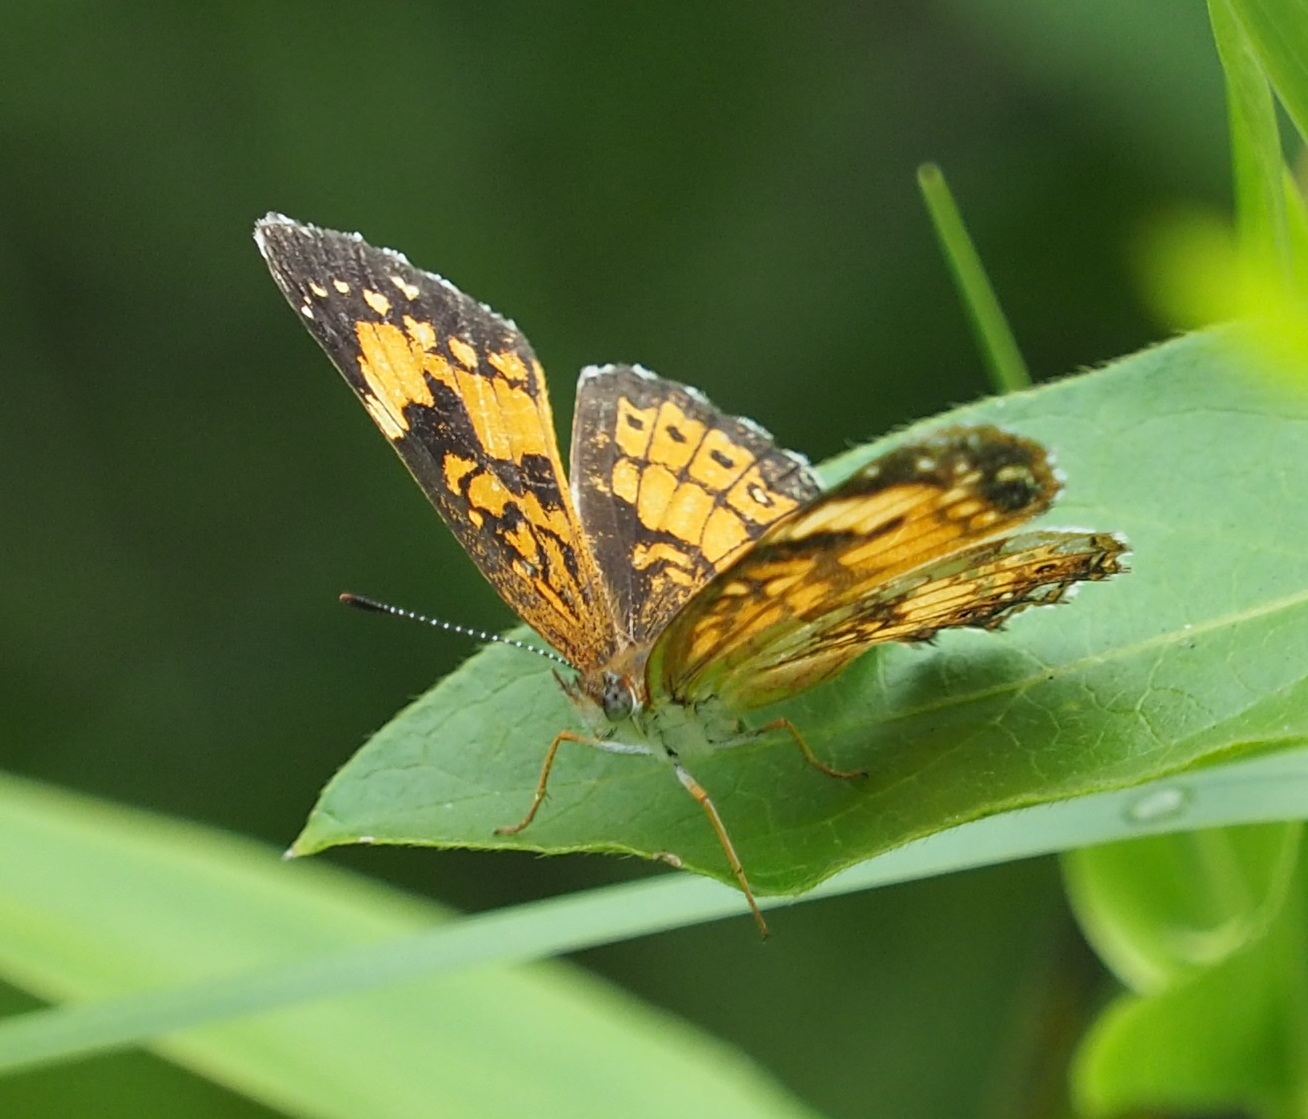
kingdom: Animalia
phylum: Arthropoda
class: Insecta
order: Lepidoptera
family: Nymphalidae
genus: Chlosyne
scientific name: Chlosyne nycteis
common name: Silvery checkerspot
